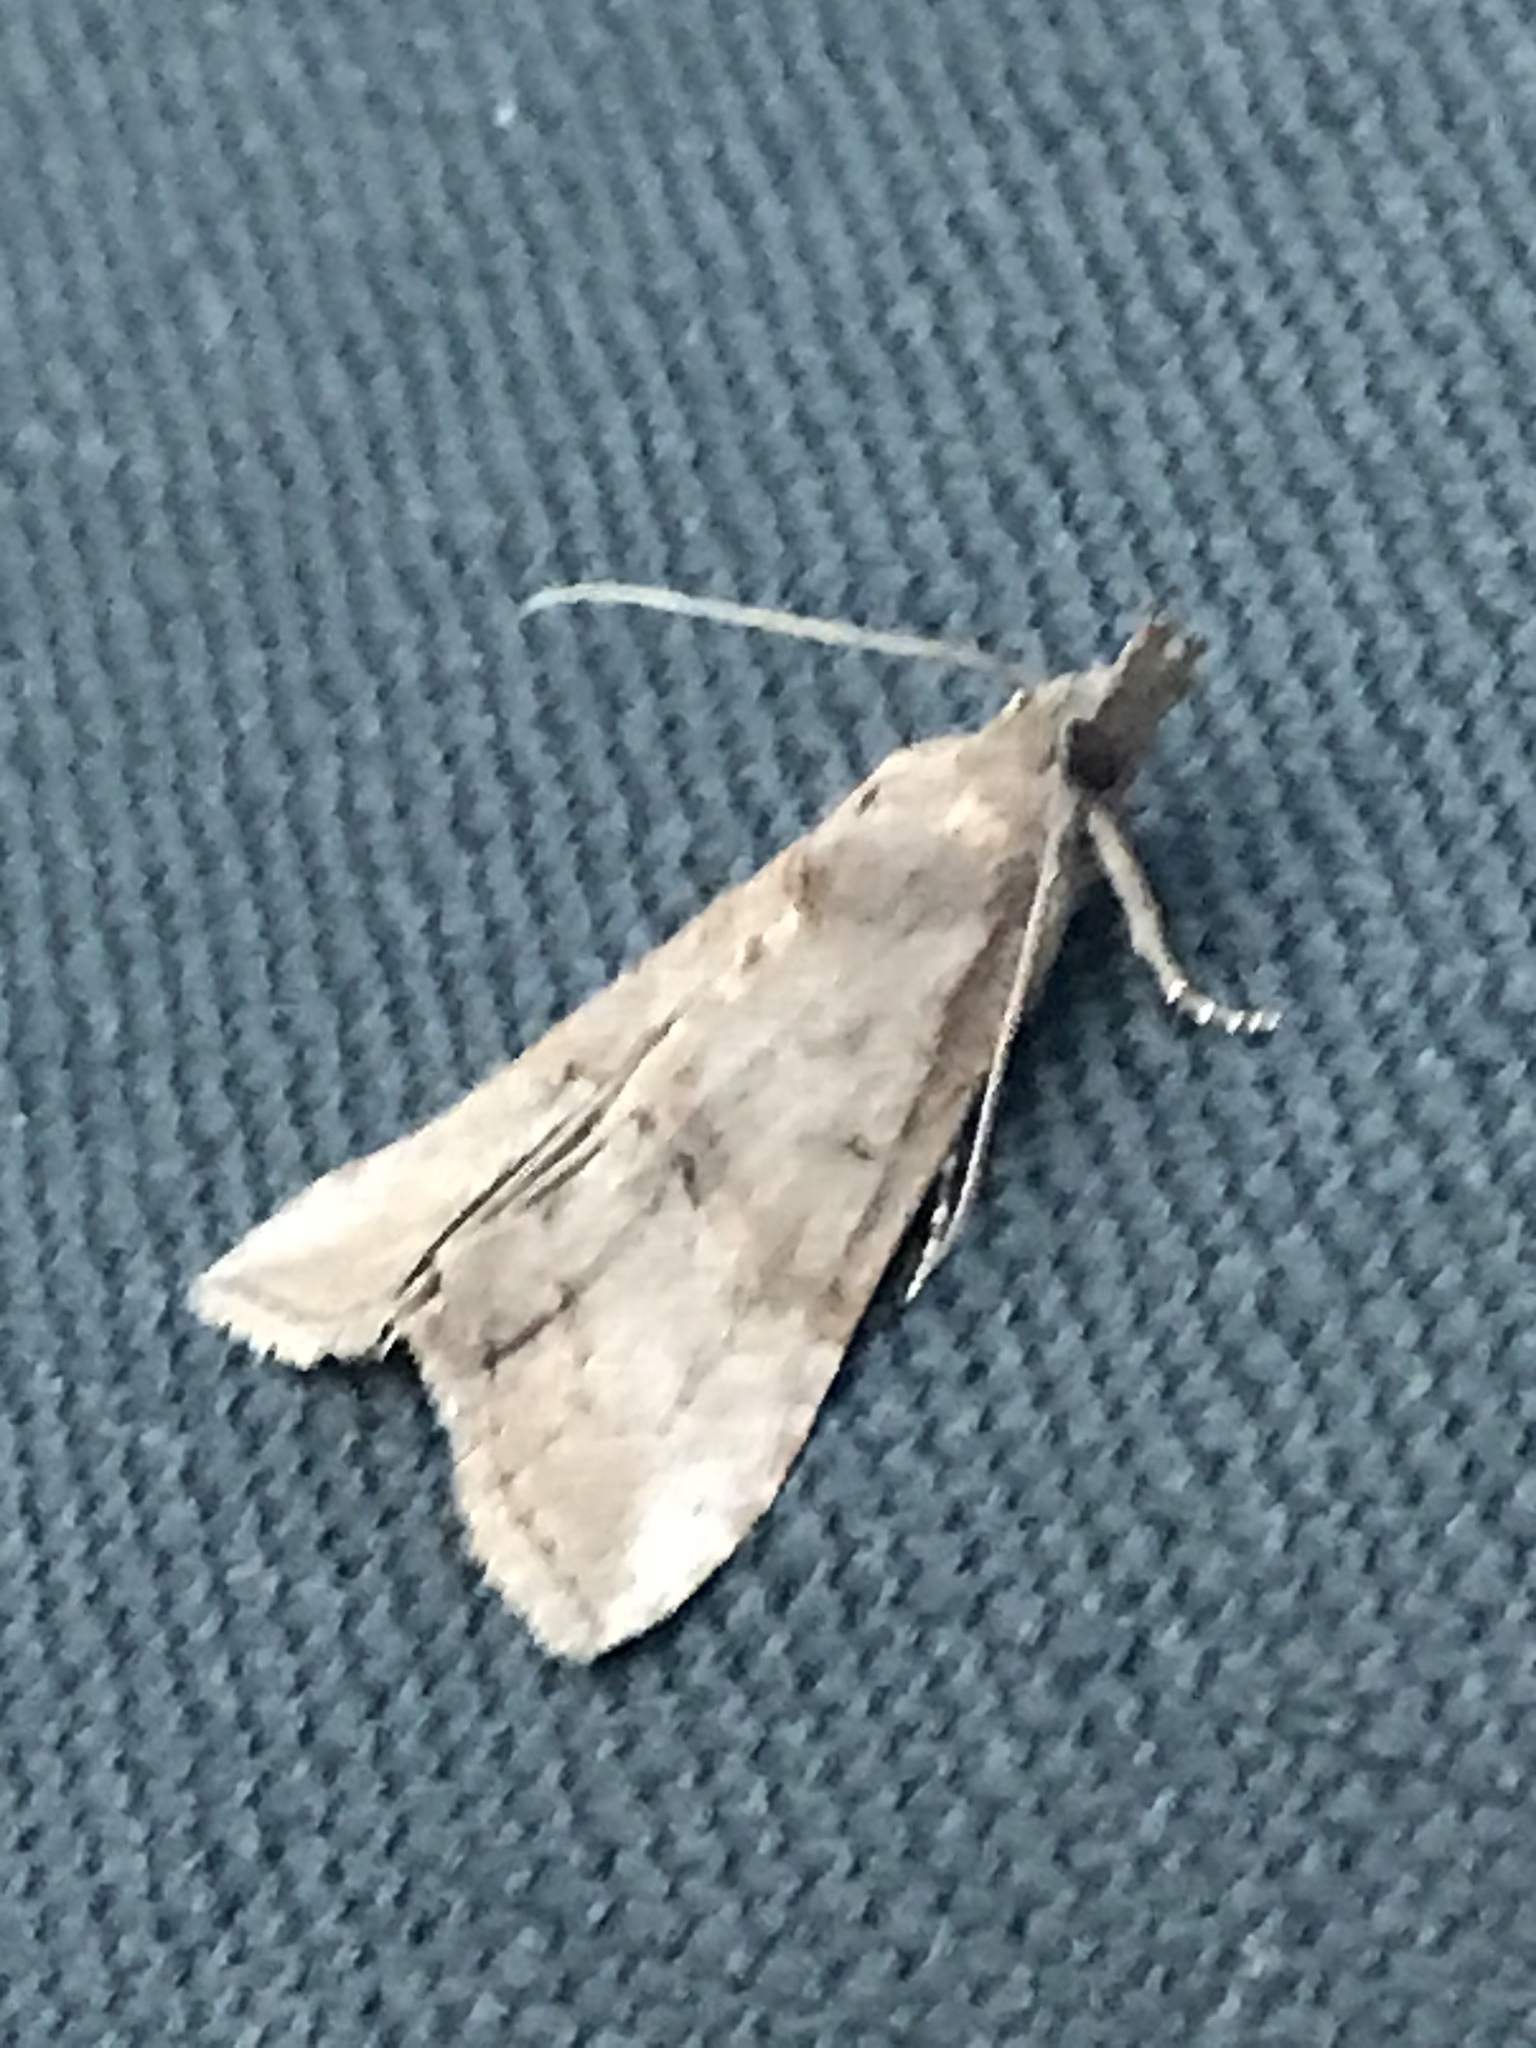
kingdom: Animalia
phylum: Arthropoda
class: Insecta
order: Lepidoptera
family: Erebidae
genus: Hypena
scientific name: Hypena scabra
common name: Green cloverworm
